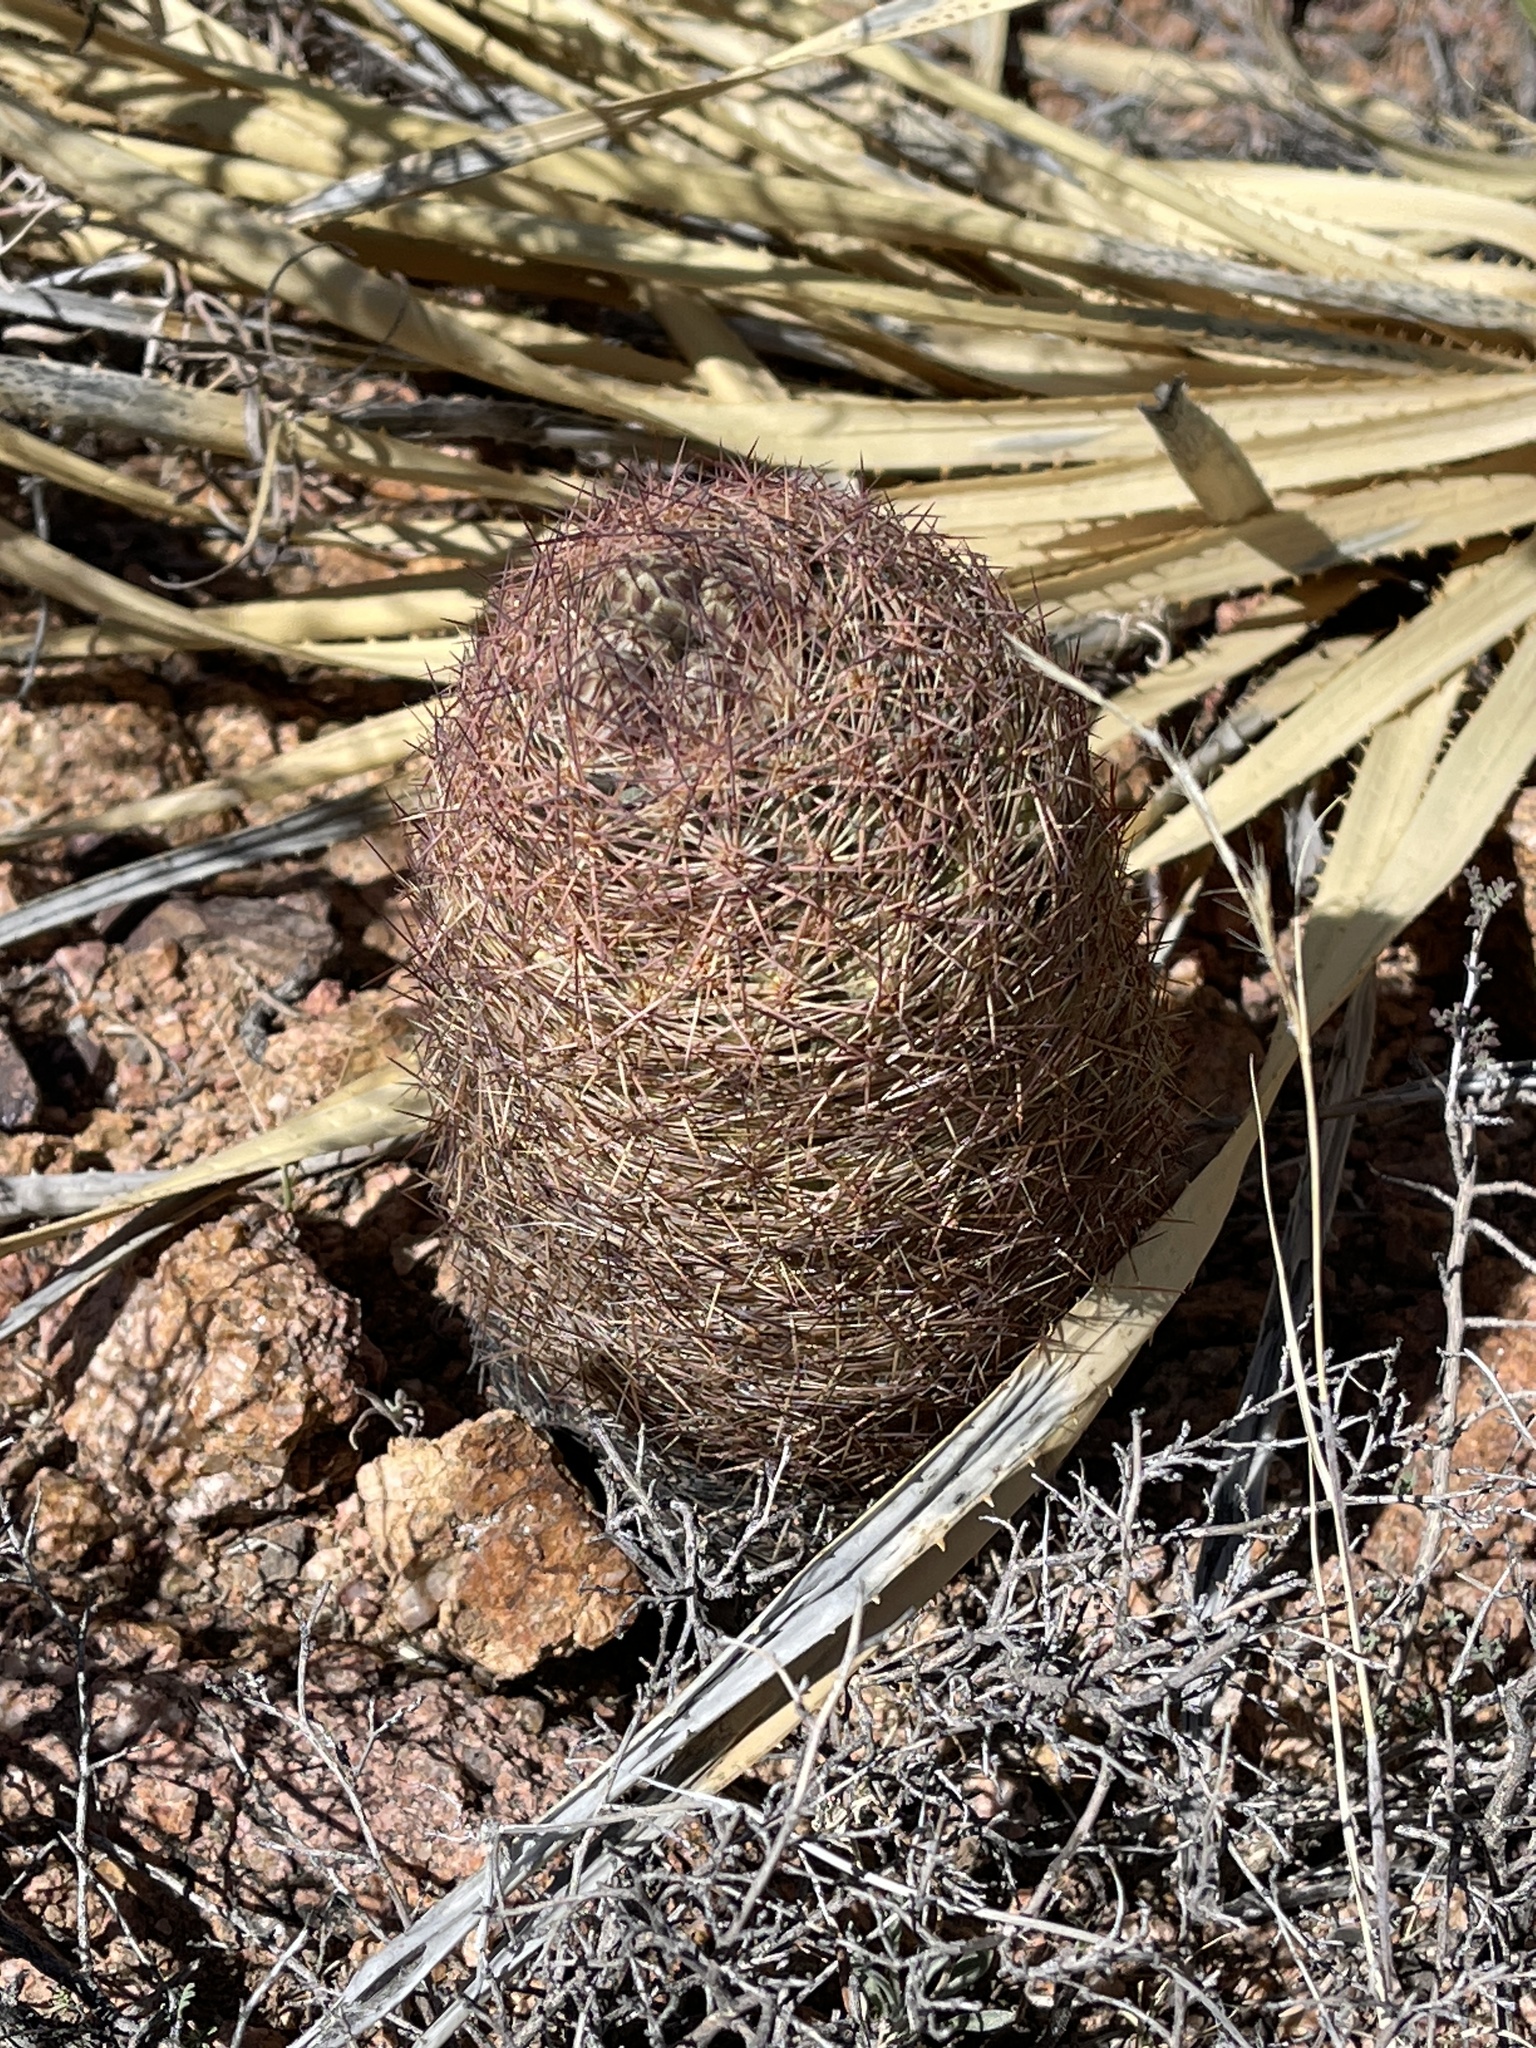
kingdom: Plantae
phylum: Tracheophyta
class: Magnoliopsida
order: Caryophyllales
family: Cactaceae
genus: Sclerocactus
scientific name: Sclerocactus intertextus
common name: White fish-hook cactus
